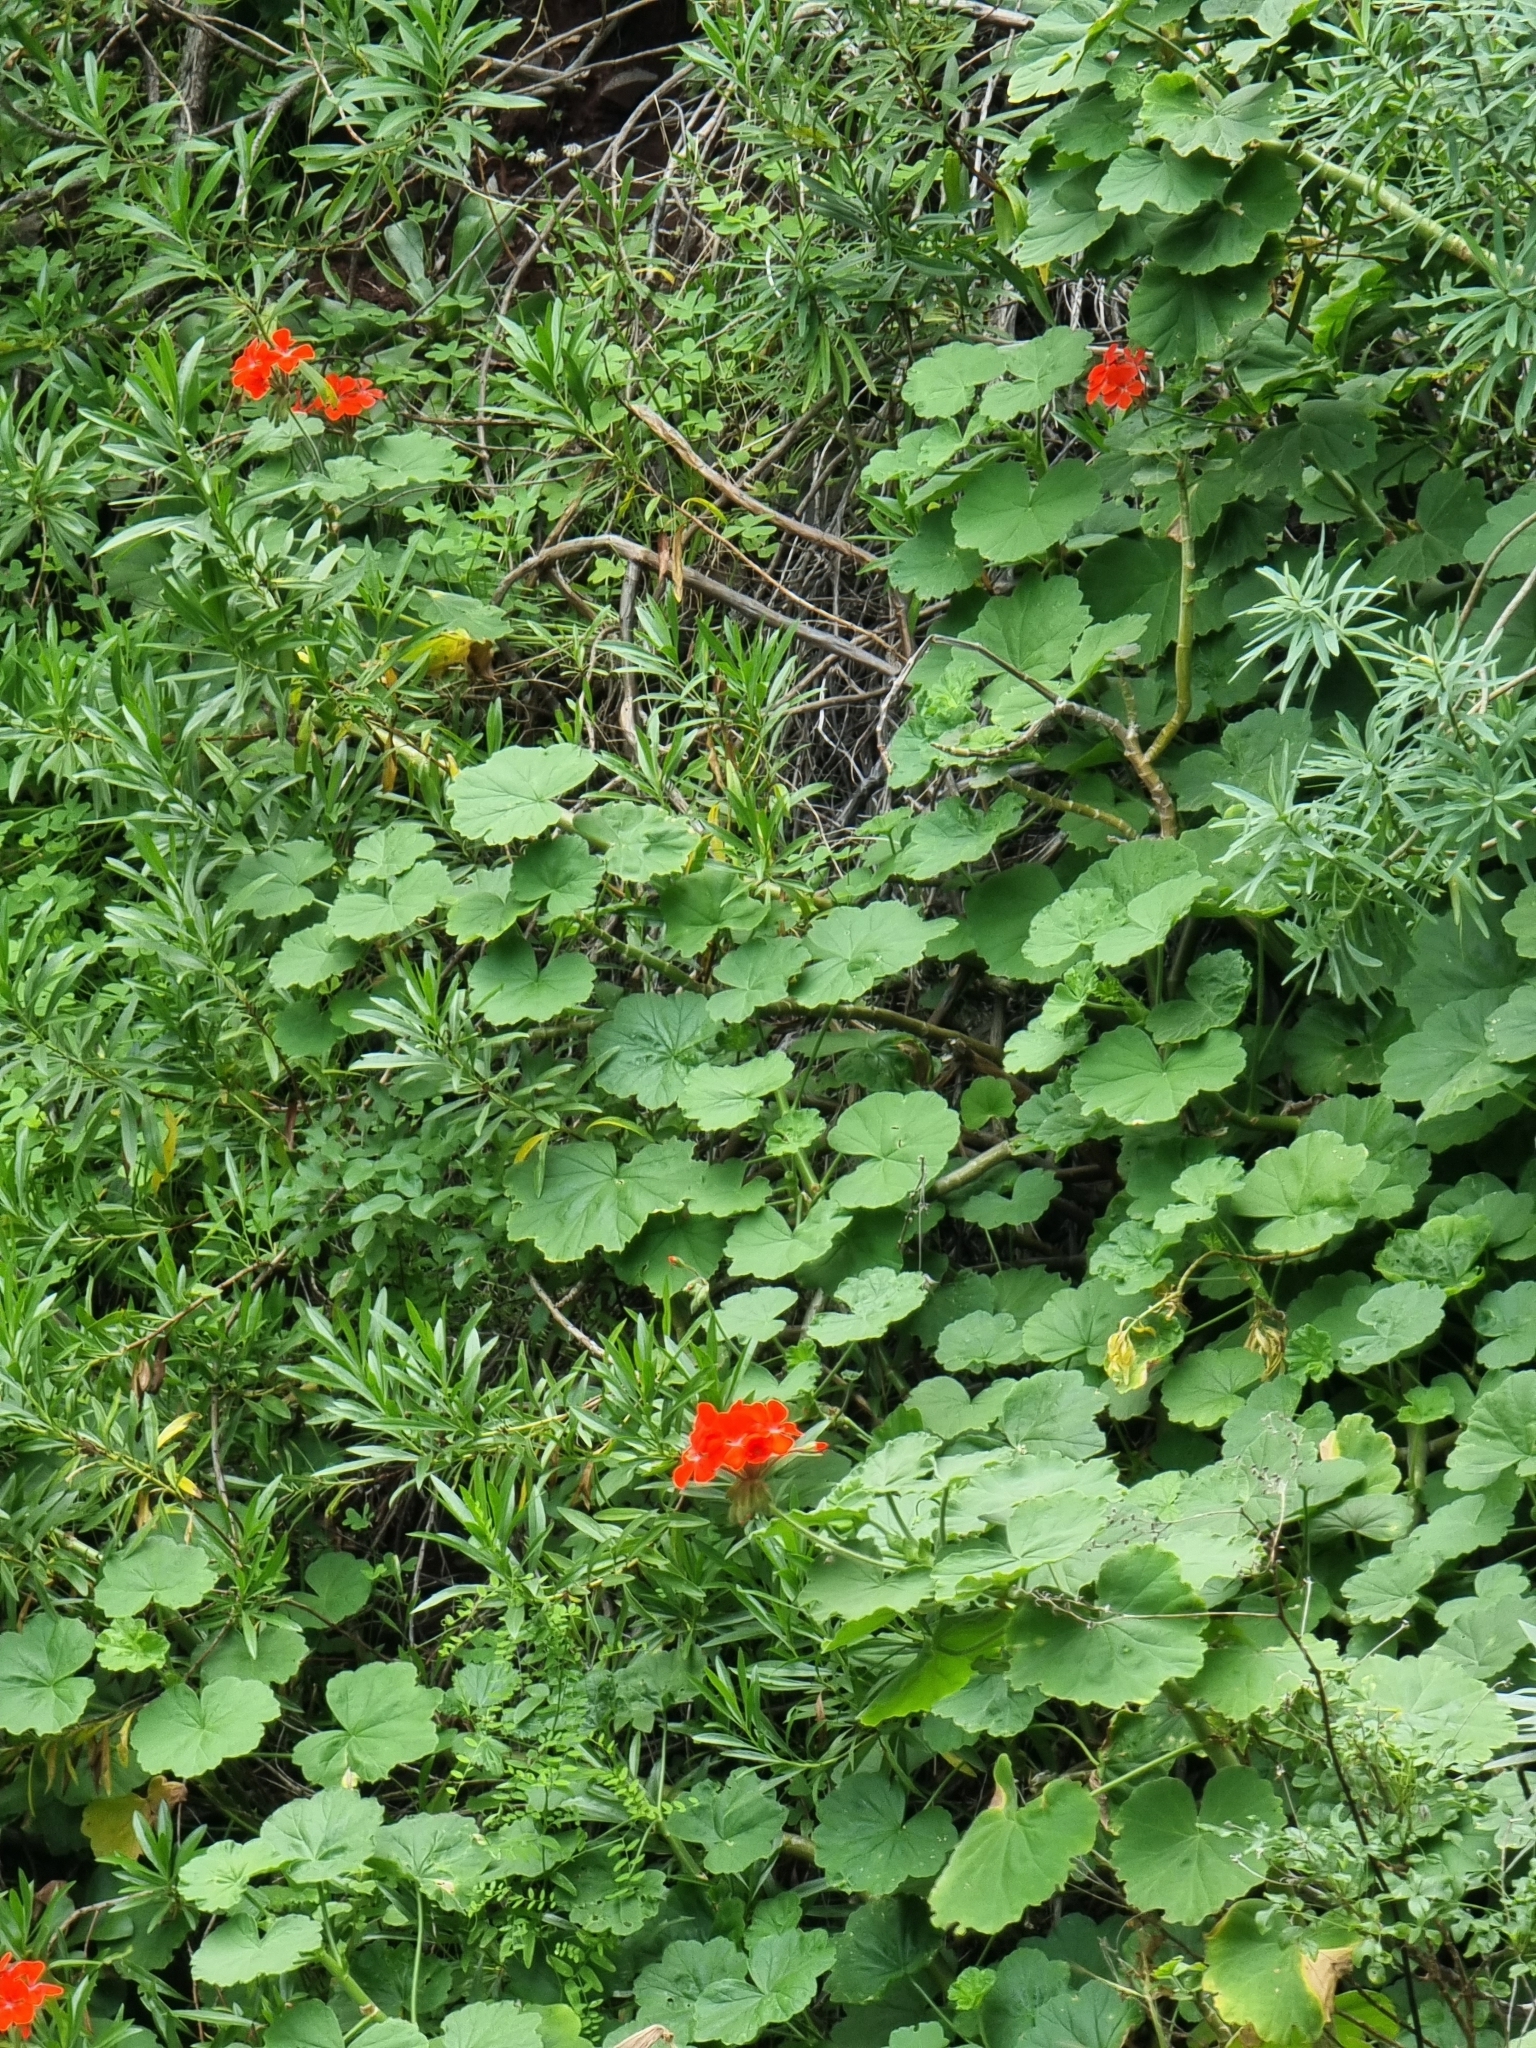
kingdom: Plantae
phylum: Tracheophyta
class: Magnoliopsida
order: Geraniales
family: Geraniaceae
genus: Pelargonium
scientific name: Pelargonium hybridum
